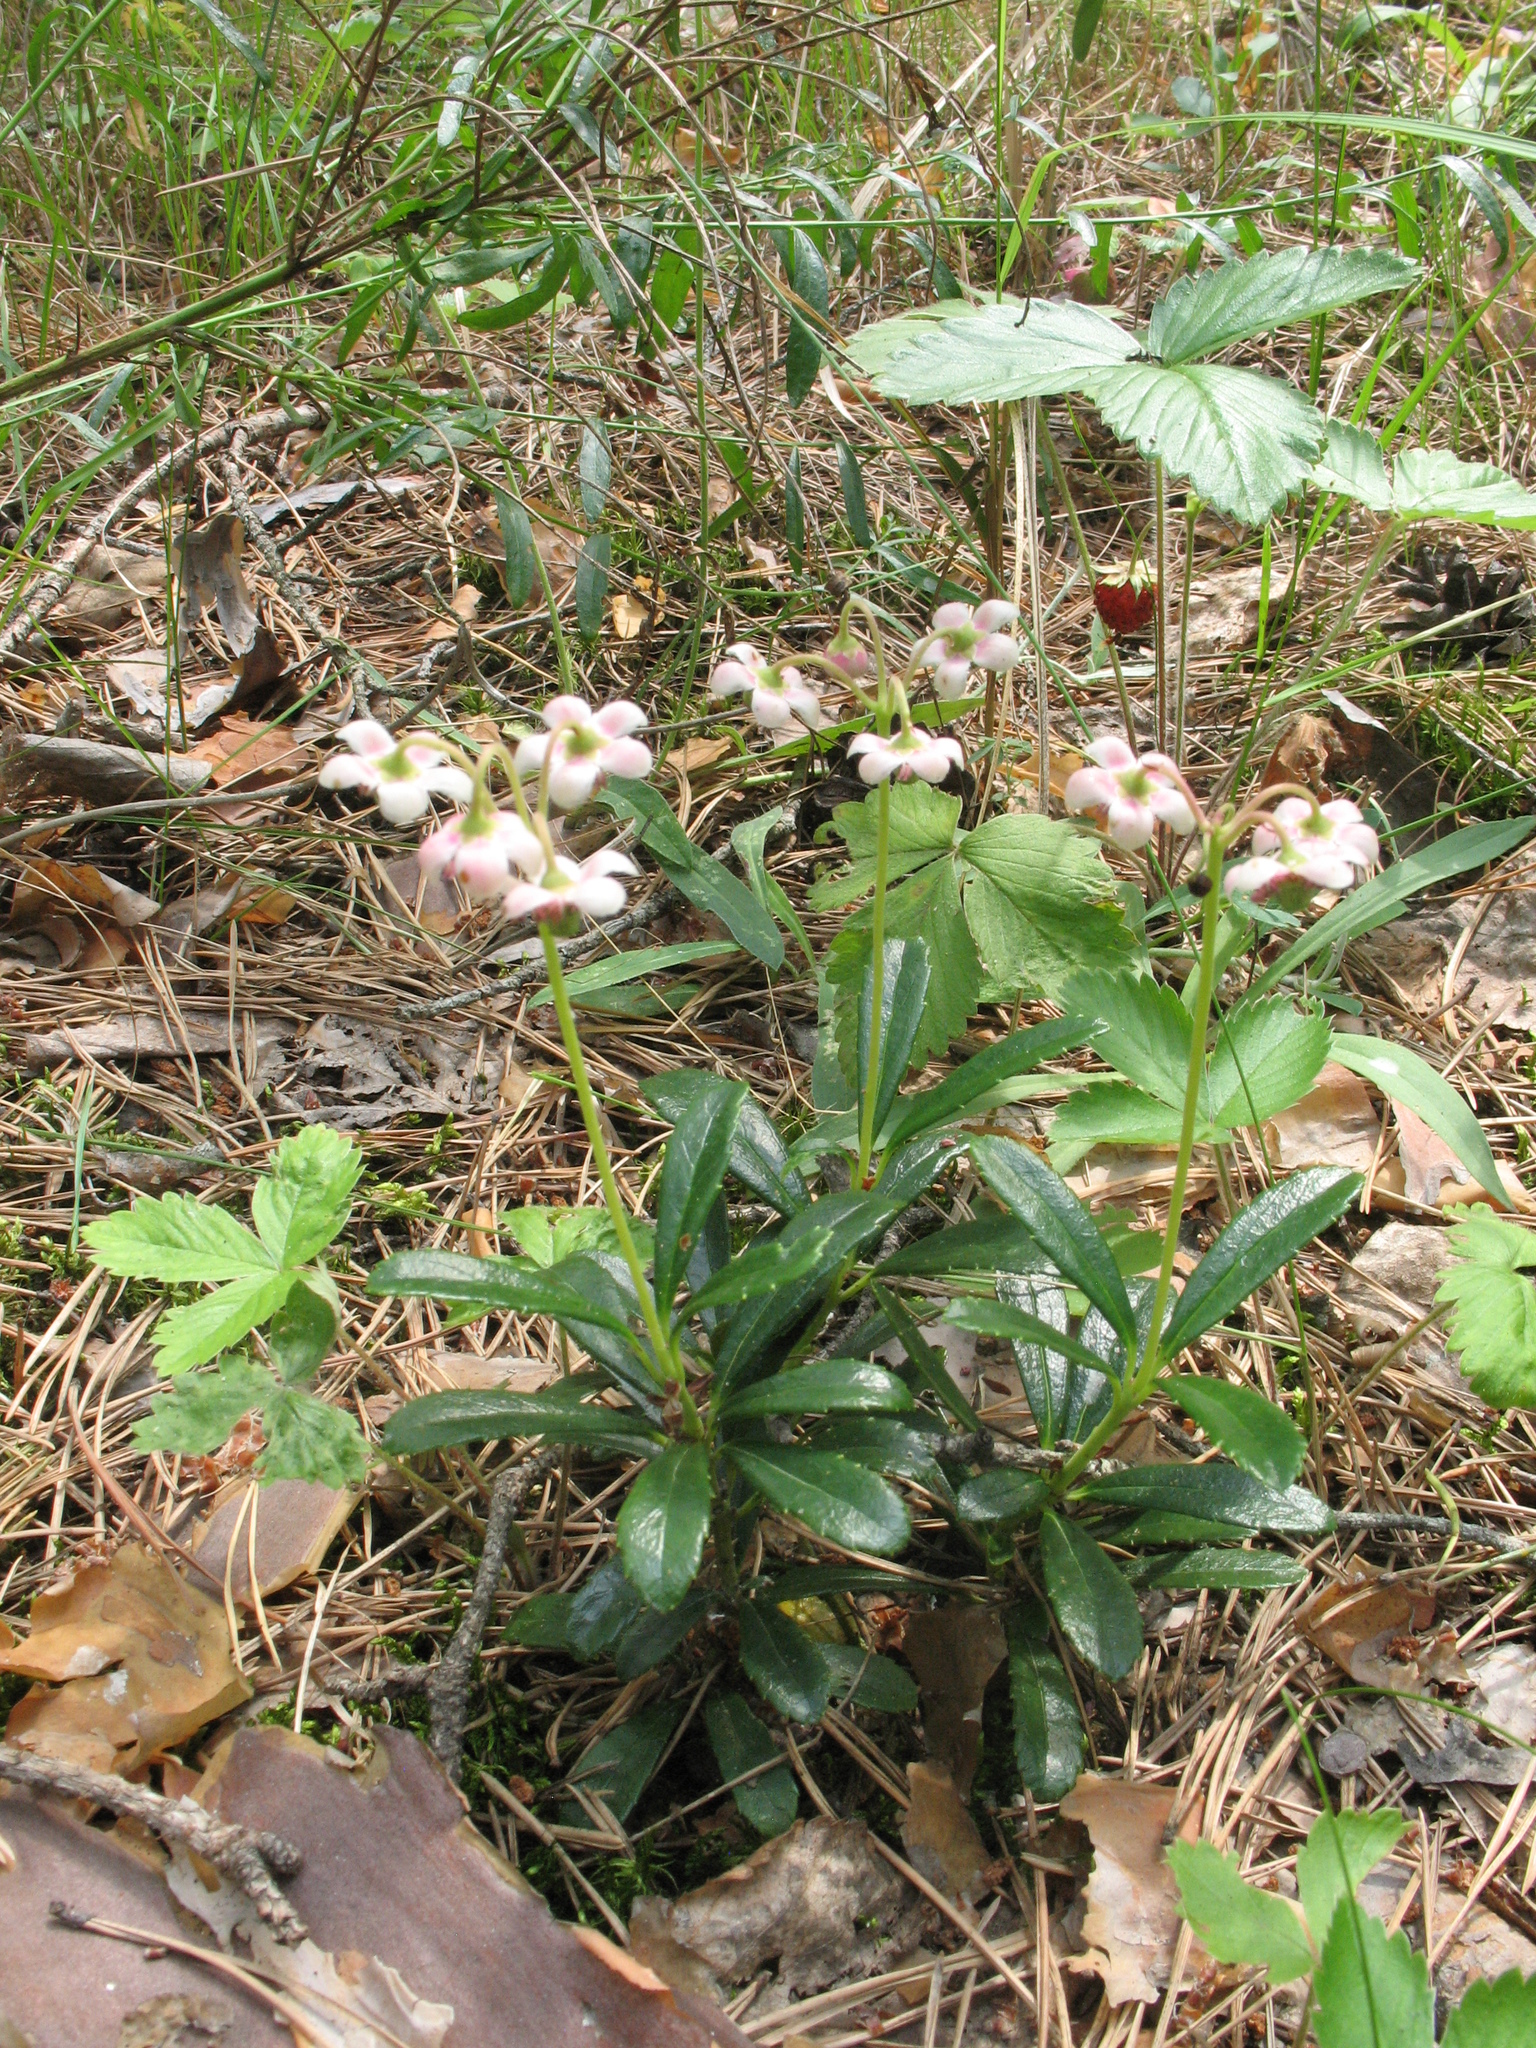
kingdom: Plantae
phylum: Tracheophyta
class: Magnoliopsida
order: Ericales
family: Ericaceae
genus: Chimaphila
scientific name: Chimaphila umbellata
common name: Pipsissewa
